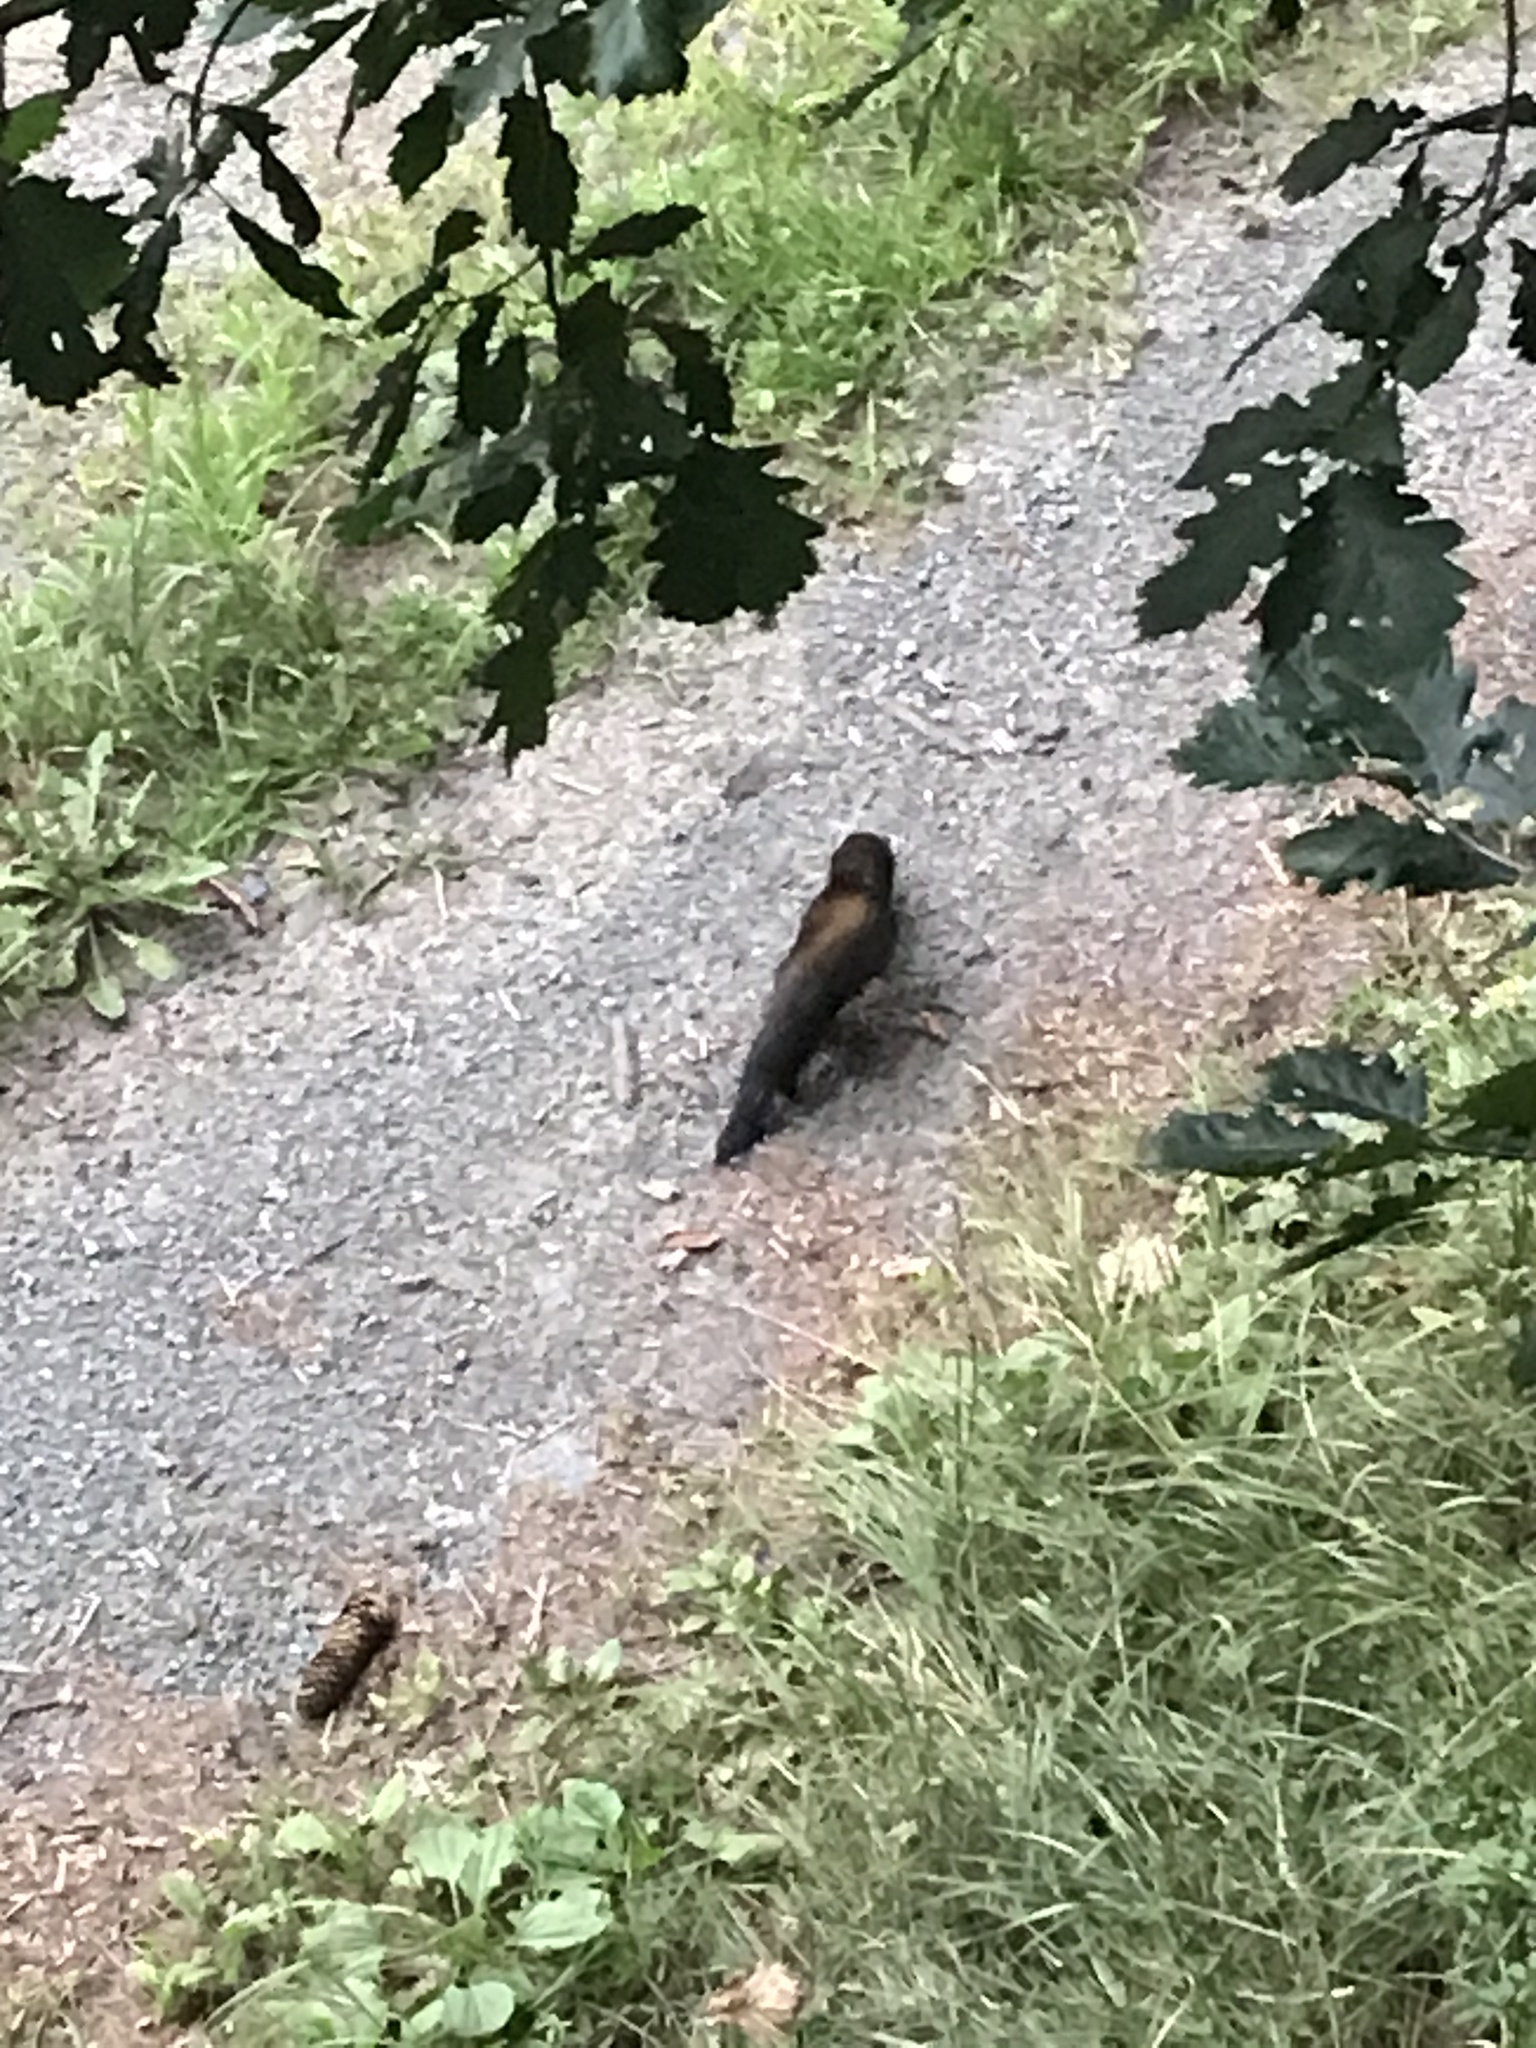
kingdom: Animalia
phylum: Chordata
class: Mammalia
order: Carnivora
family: Mustelidae
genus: Mustela
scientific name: Mustela putorius
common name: European polecat
